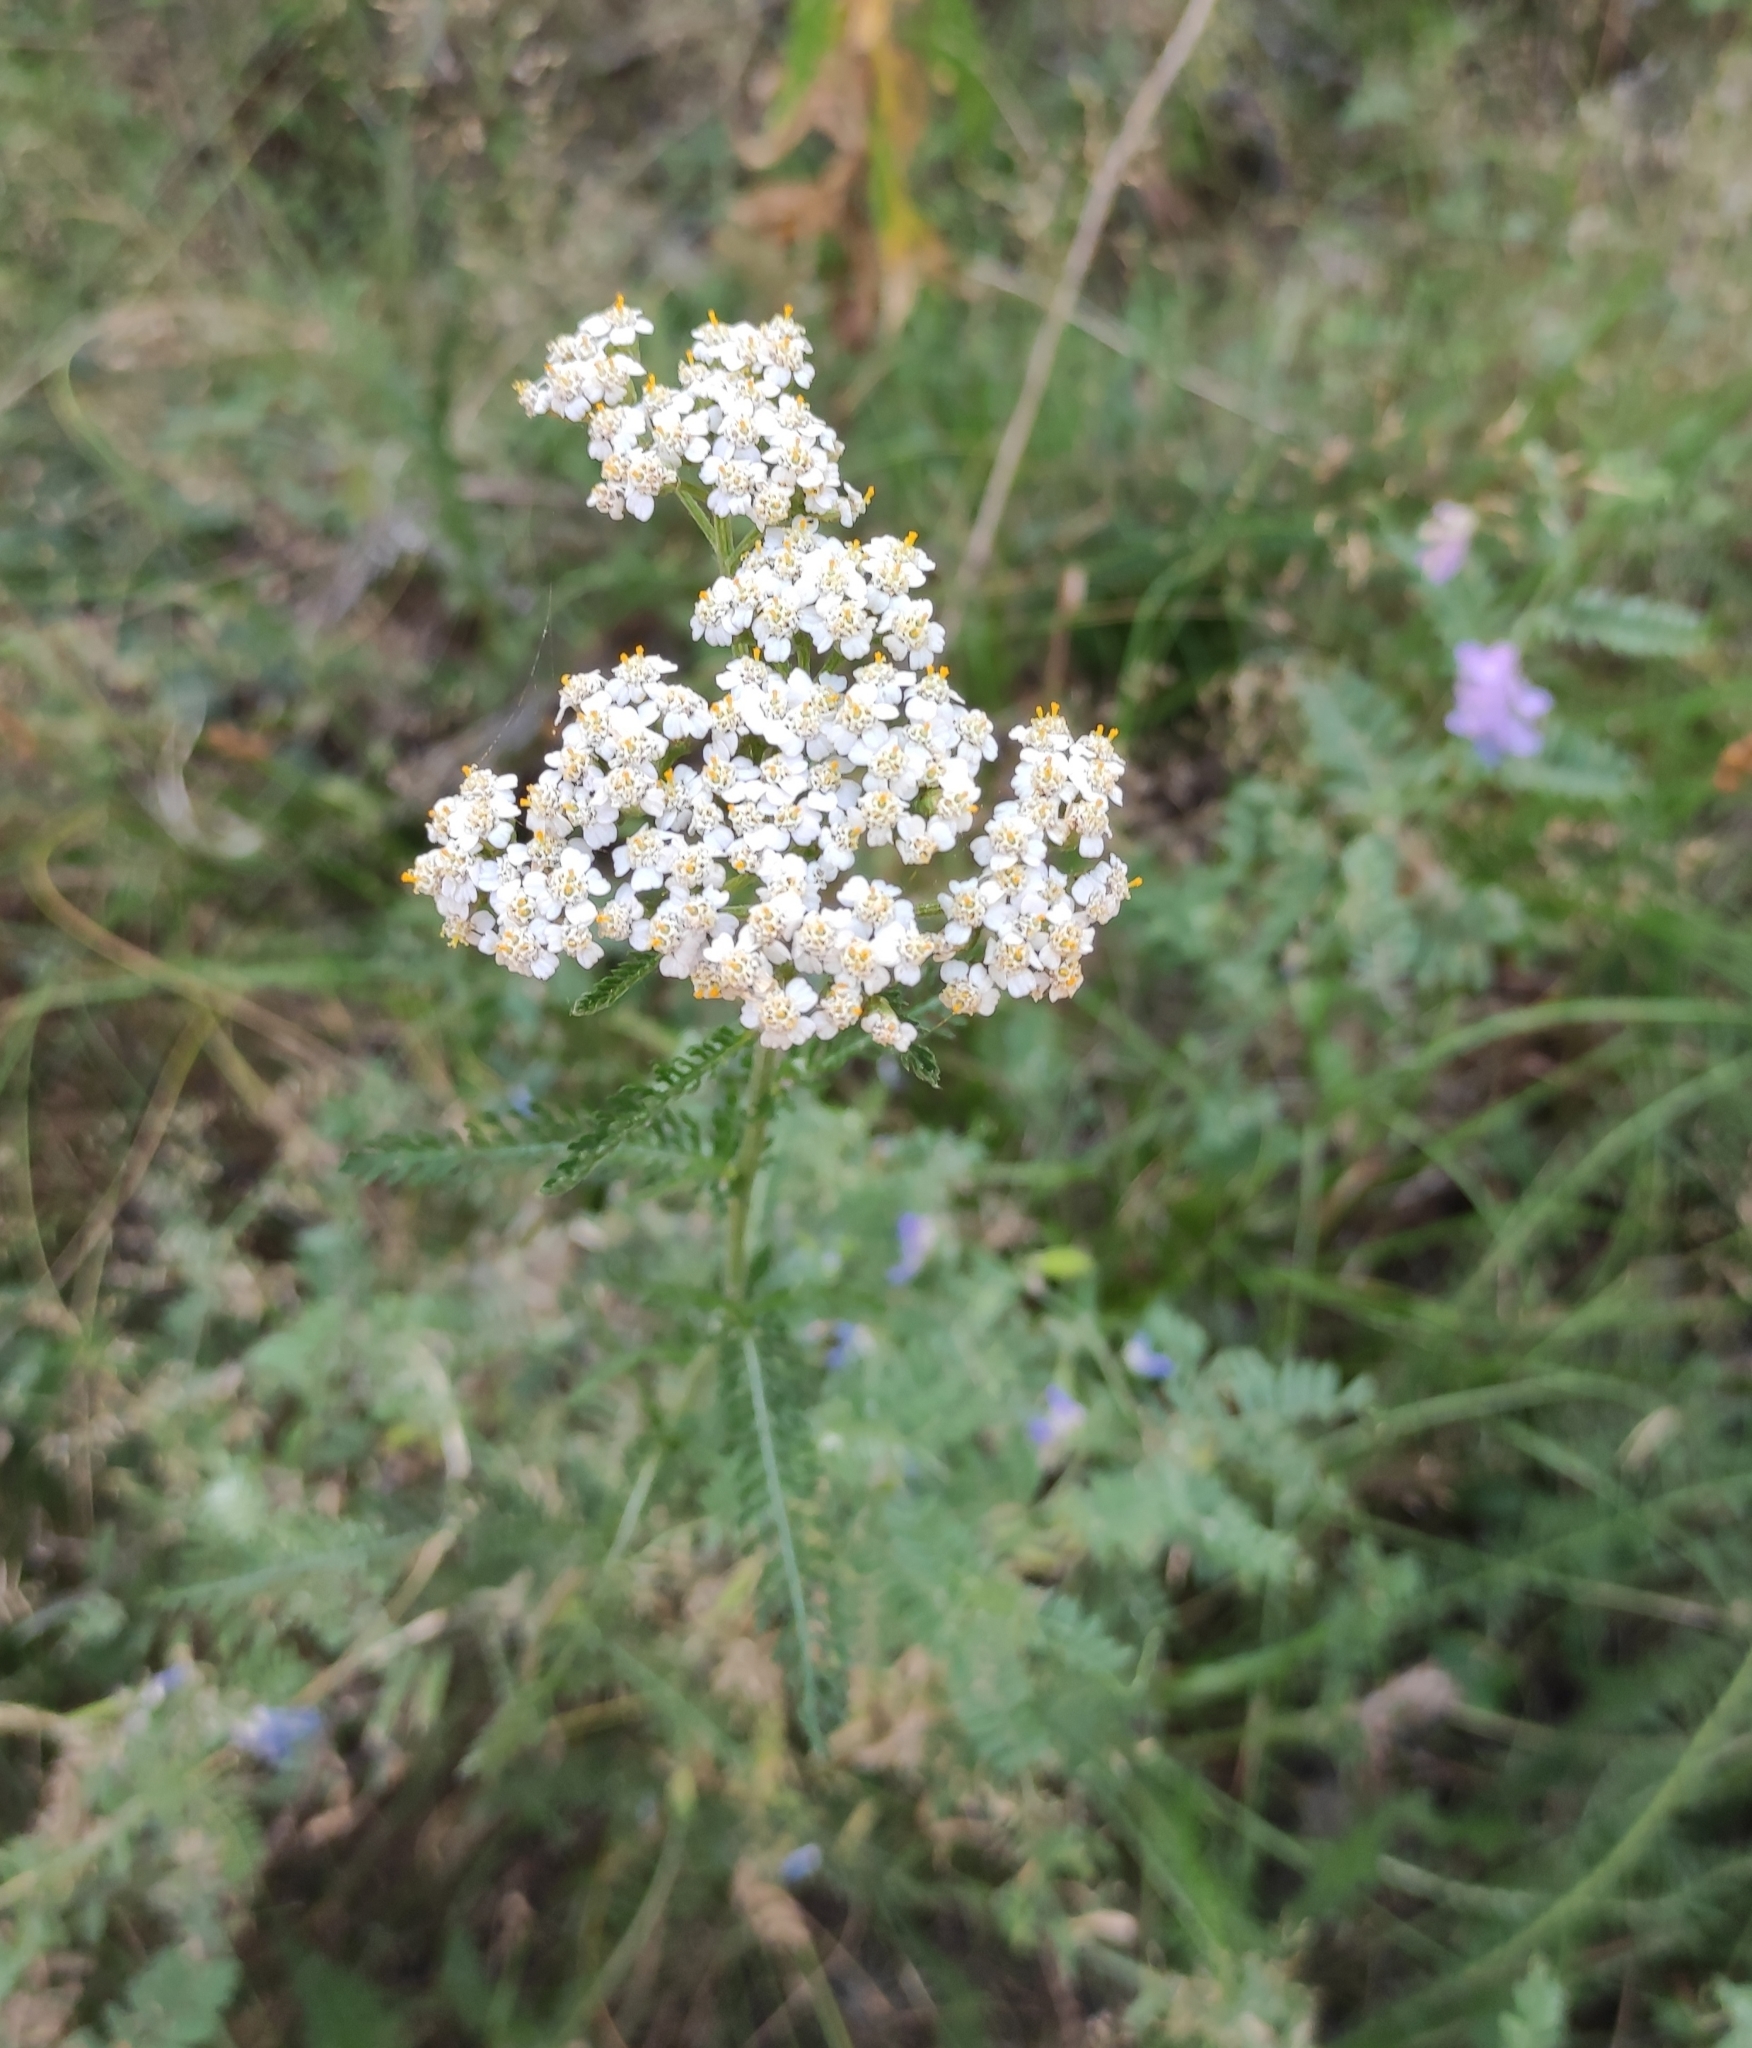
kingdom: Plantae
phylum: Tracheophyta
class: Magnoliopsida
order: Asterales
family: Asteraceae
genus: Achillea
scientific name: Achillea millefolium
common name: Yarrow
